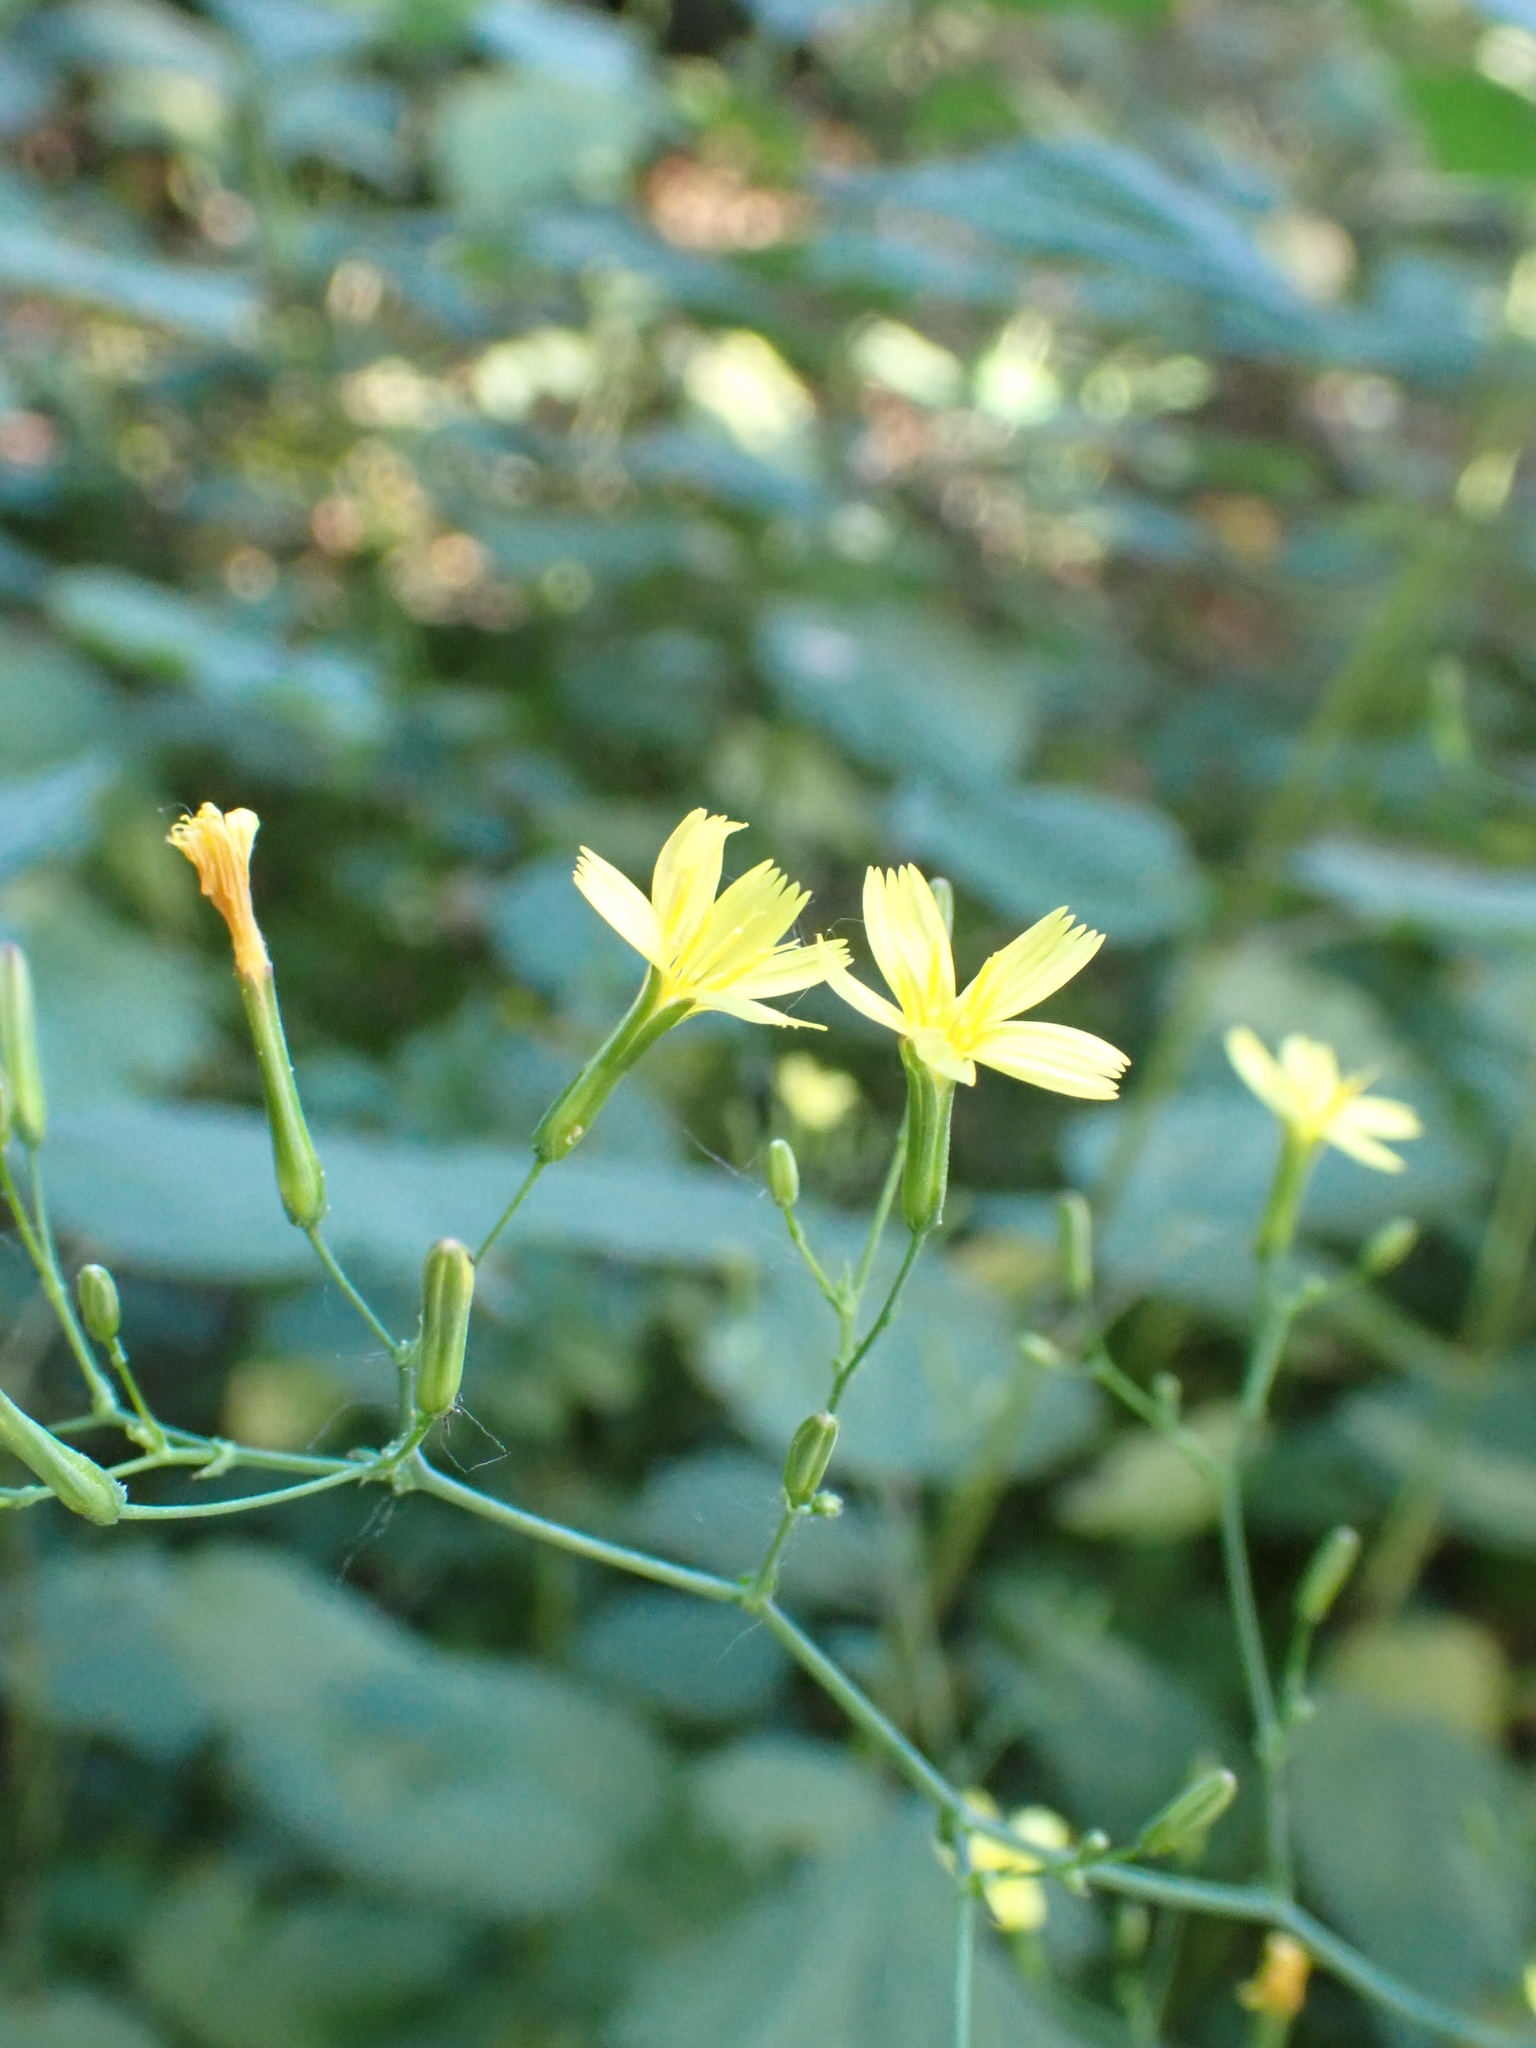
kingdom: Plantae
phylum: Tracheophyta
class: Magnoliopsida
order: Asterales
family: Asteraceae
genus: Mycelis
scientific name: Mycelis muralis
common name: Wall lettuce
